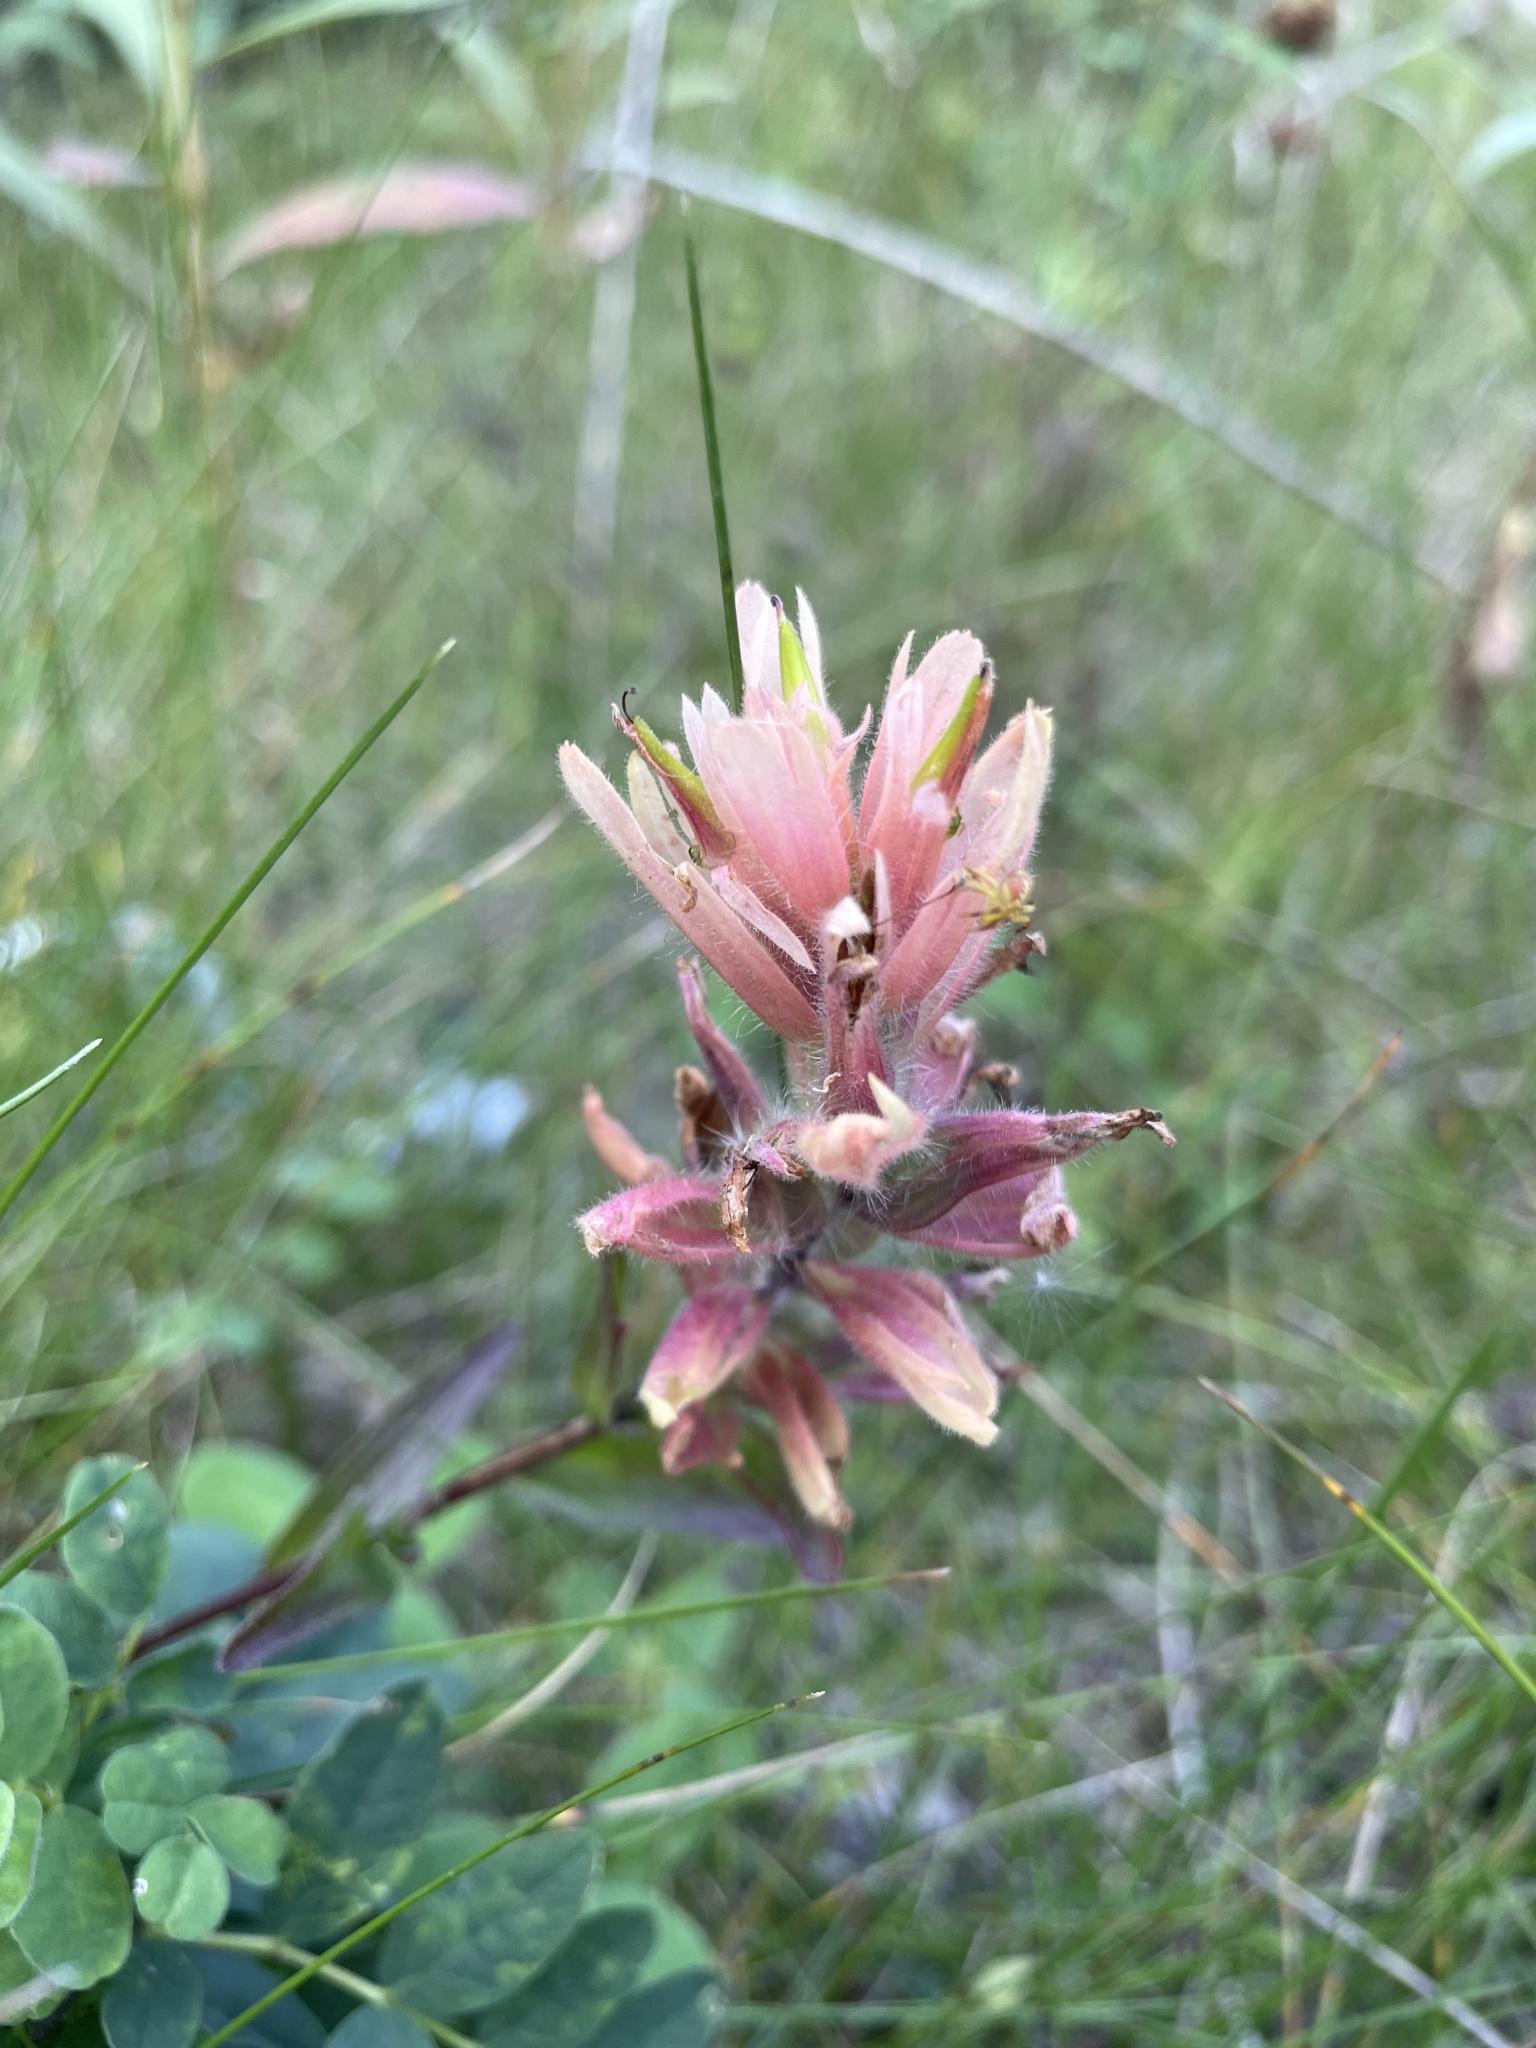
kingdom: Plantae
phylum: Tracheophyta
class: Magnoliopsida
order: Lamiales
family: Orobanchaceae
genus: Castilleja
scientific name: Castilleja miniata
